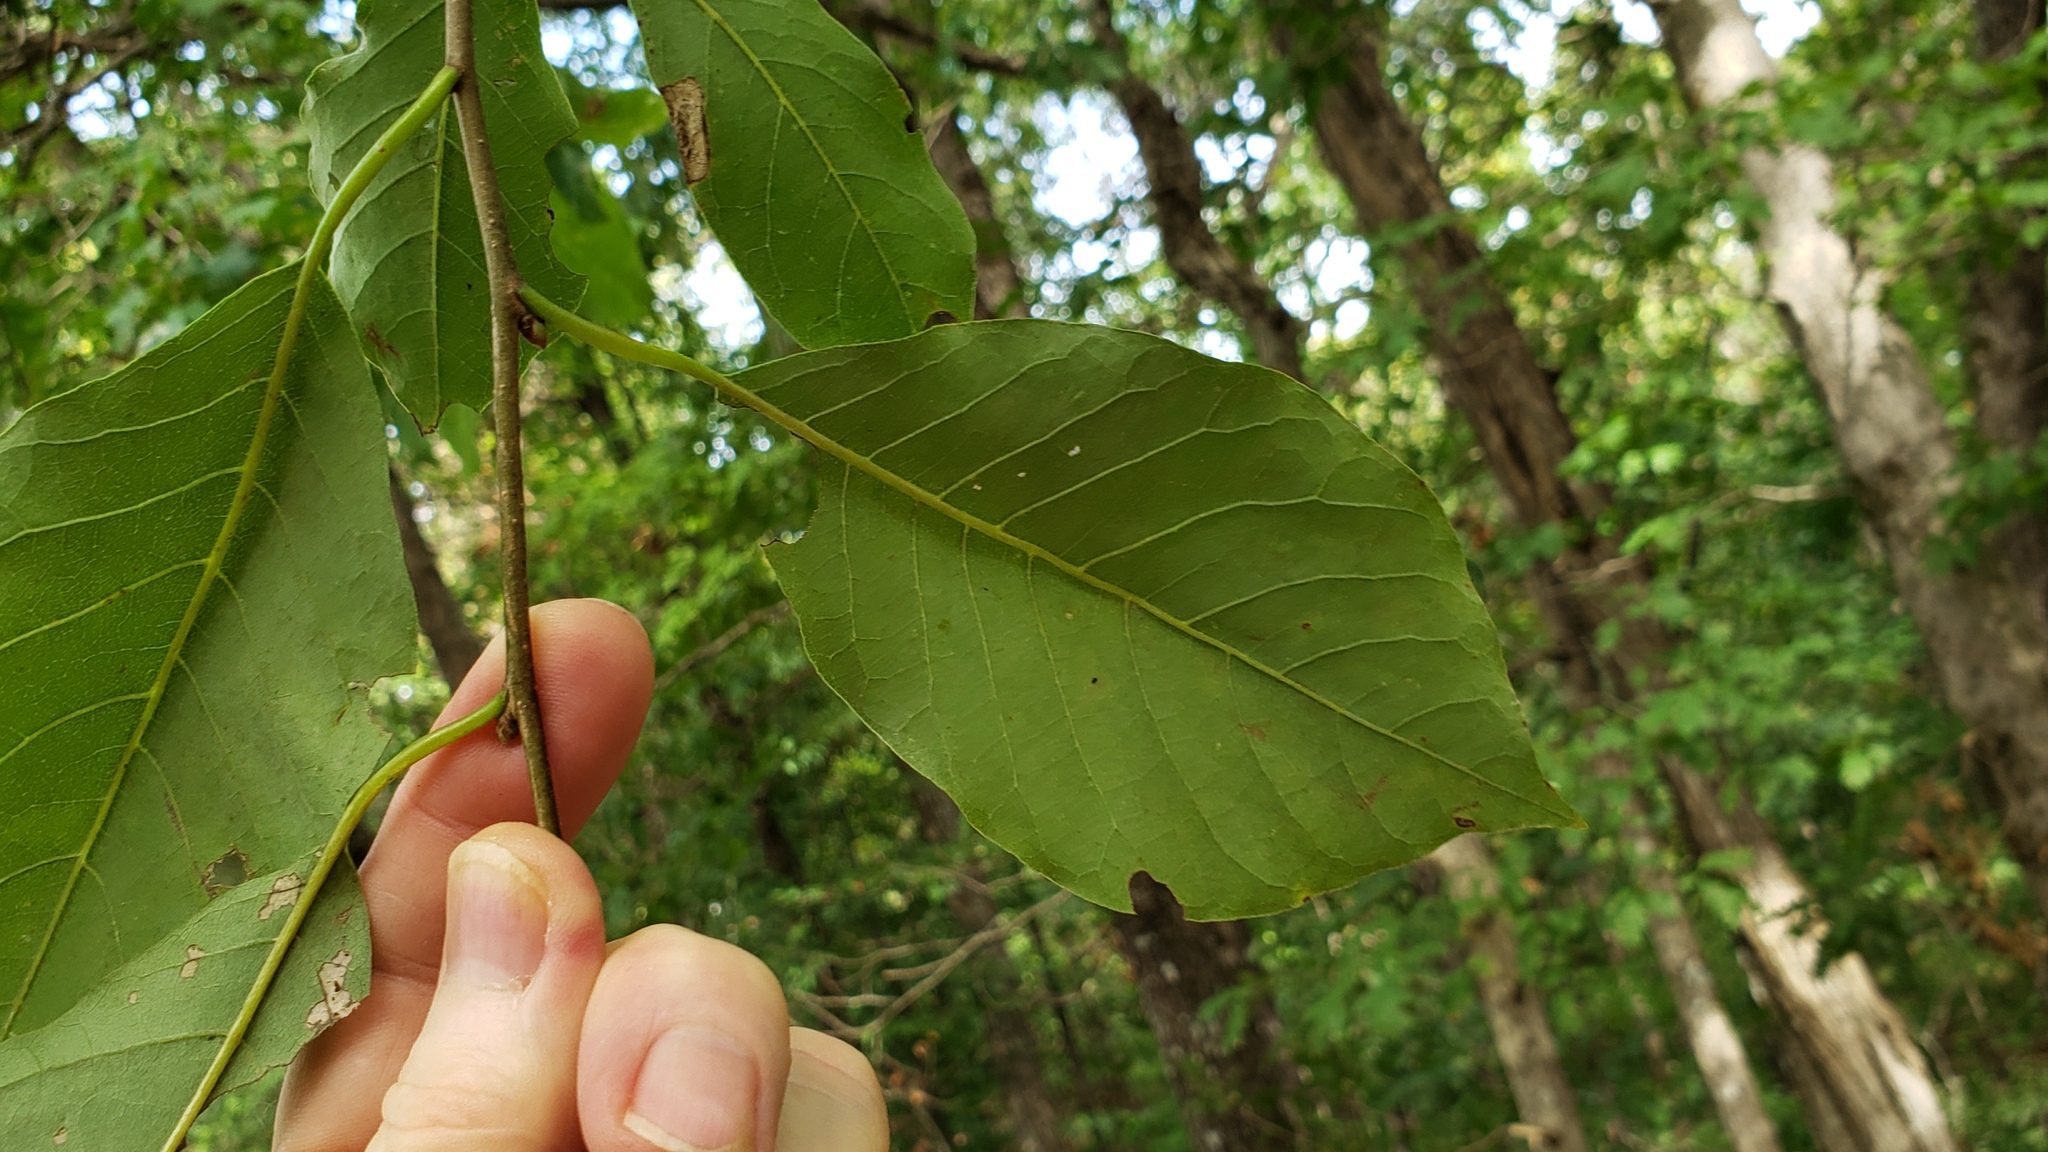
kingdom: Plantae
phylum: Tracheophyta
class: Magnoliopsida
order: Cornales
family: Nyssaceae
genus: Nyssa
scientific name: Nyssa sylvatica
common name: Black tupelo
